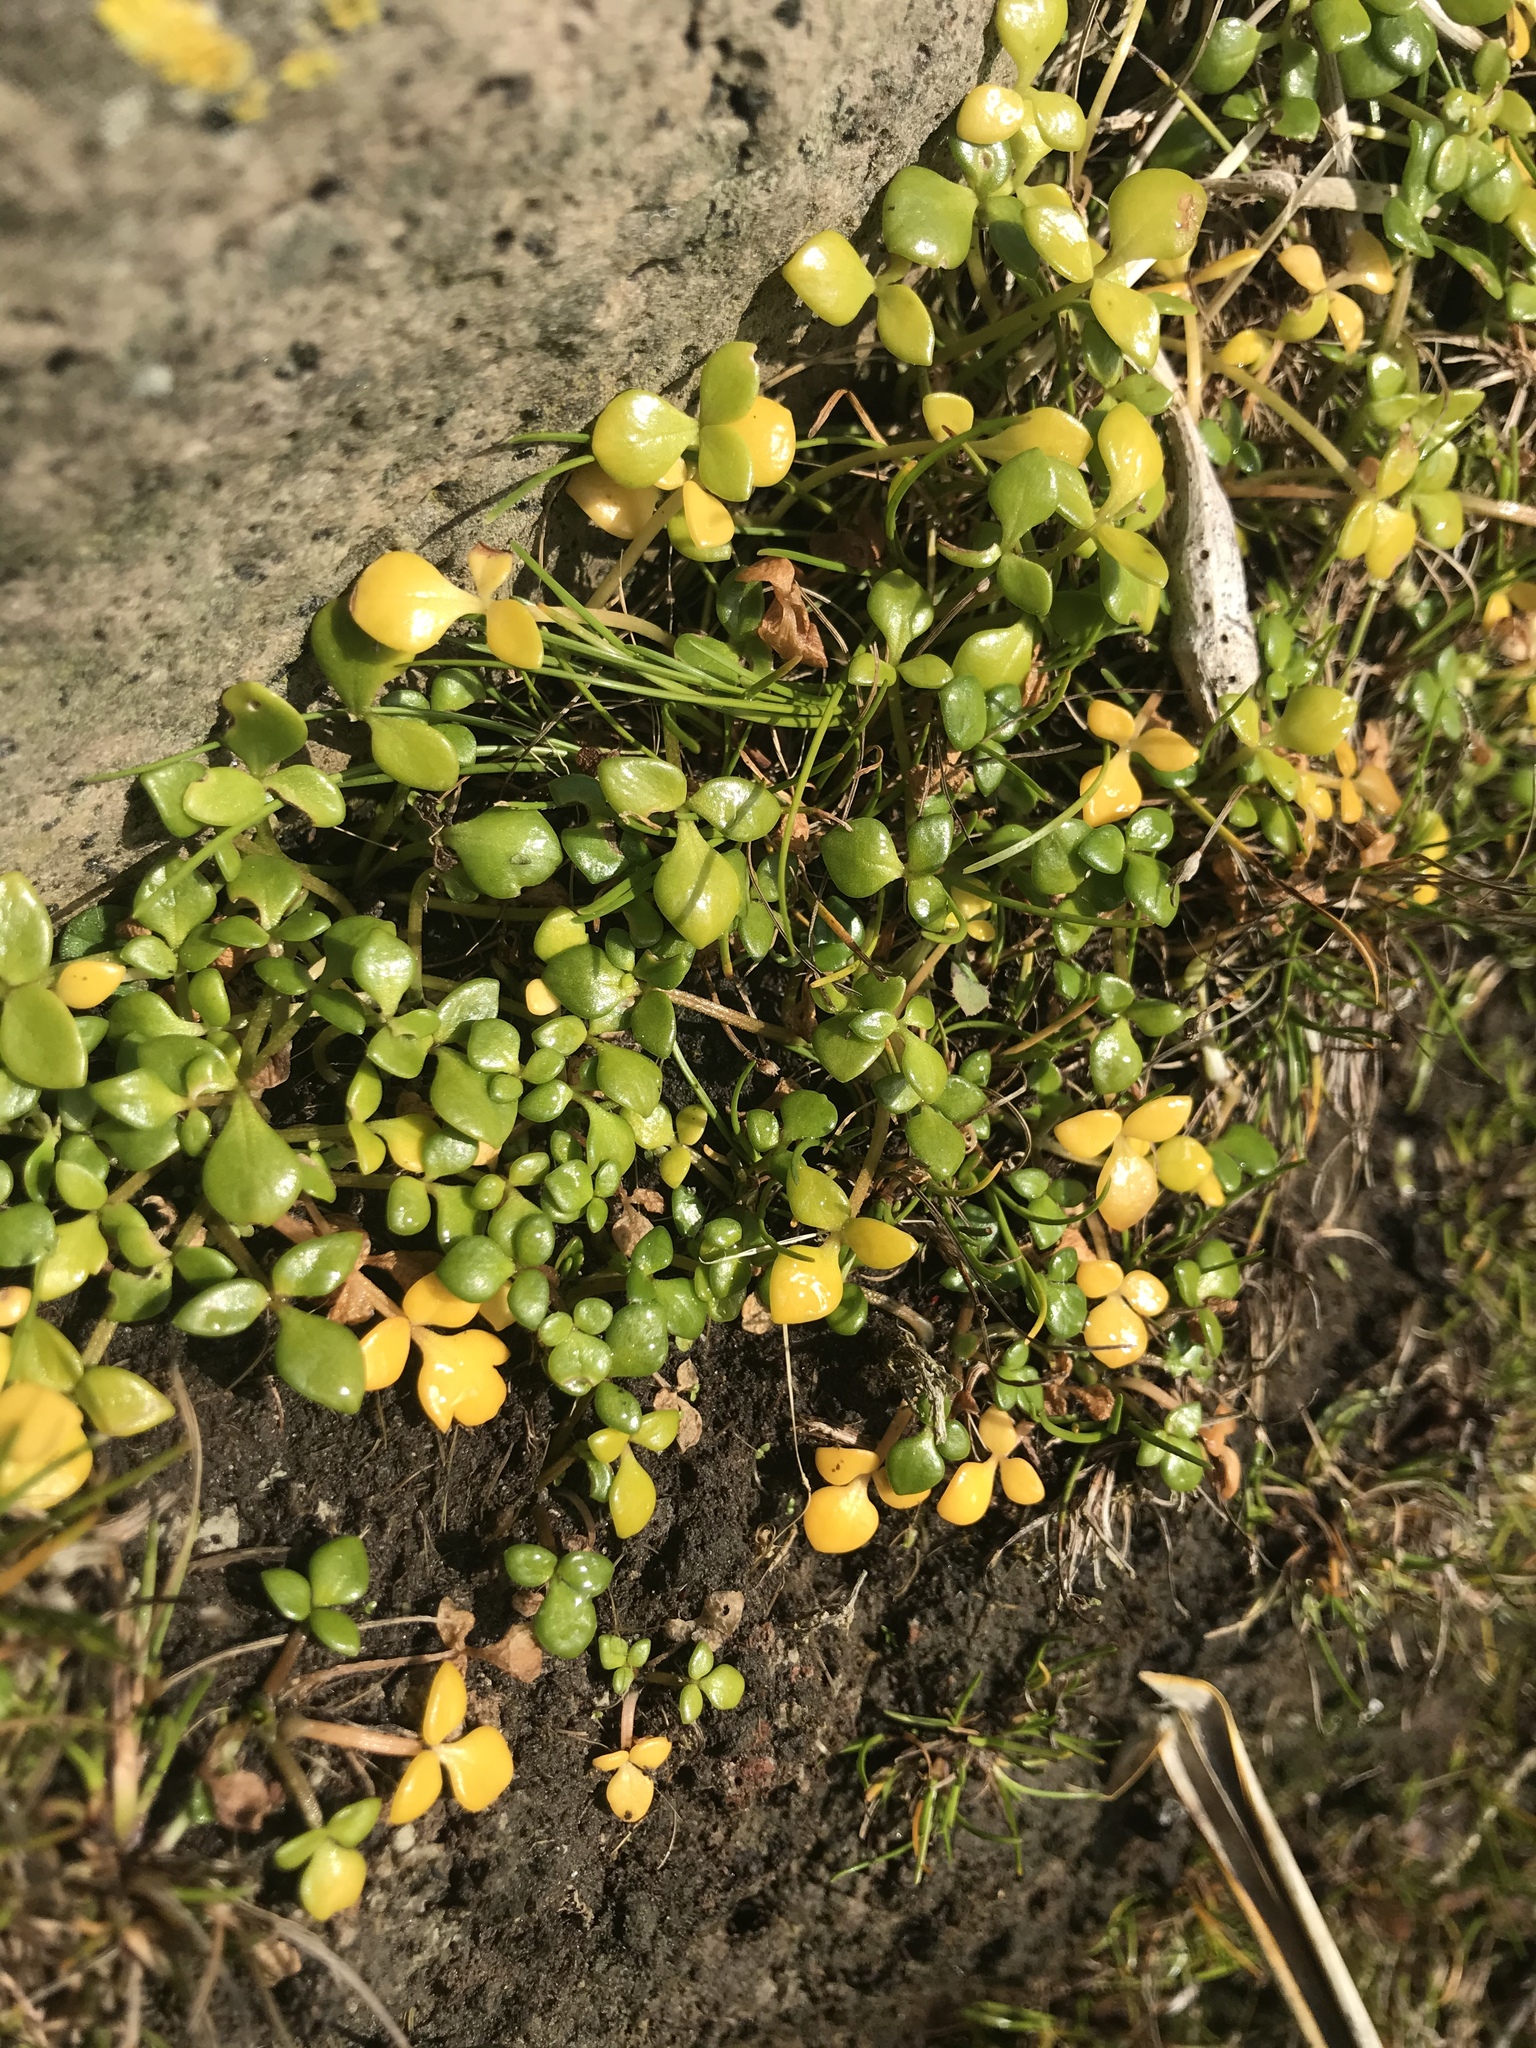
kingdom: Plantae
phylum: Tracheophyta
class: Magnoliopsida
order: Ranunculales
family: Ranunculaceae
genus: Ranunculus
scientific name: Ranunculus acaulis
